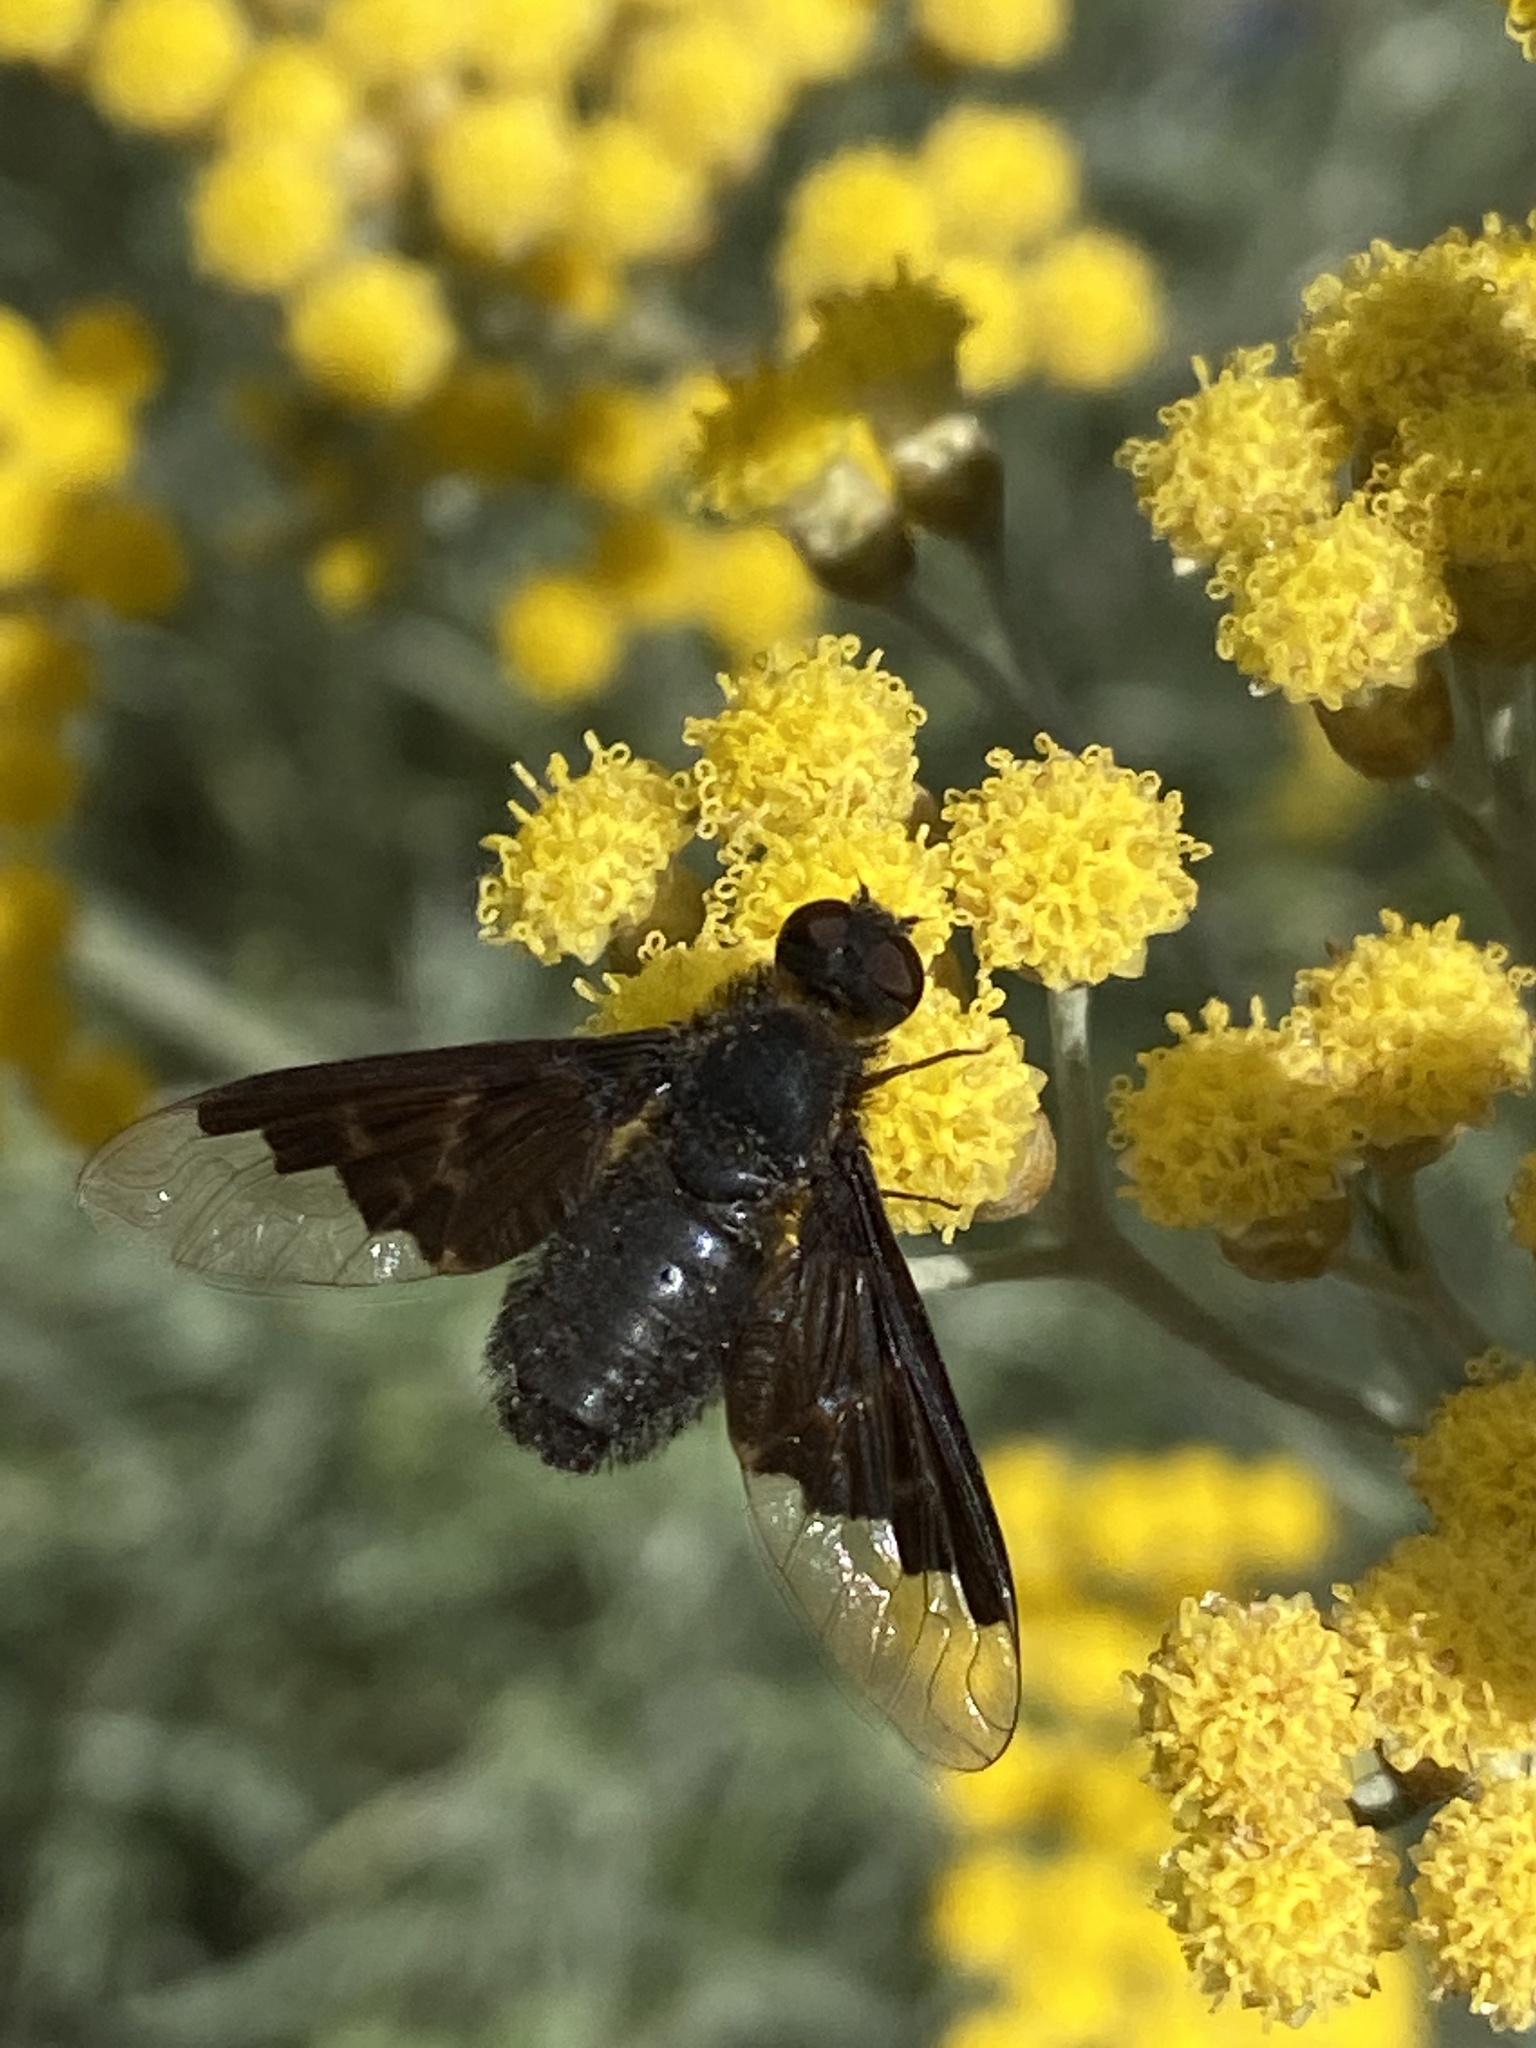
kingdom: Animalia
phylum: Arthropoda
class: Insecta
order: Diptera
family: Bombyliidae
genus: Hemipenthes
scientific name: Hemipenthes morio
